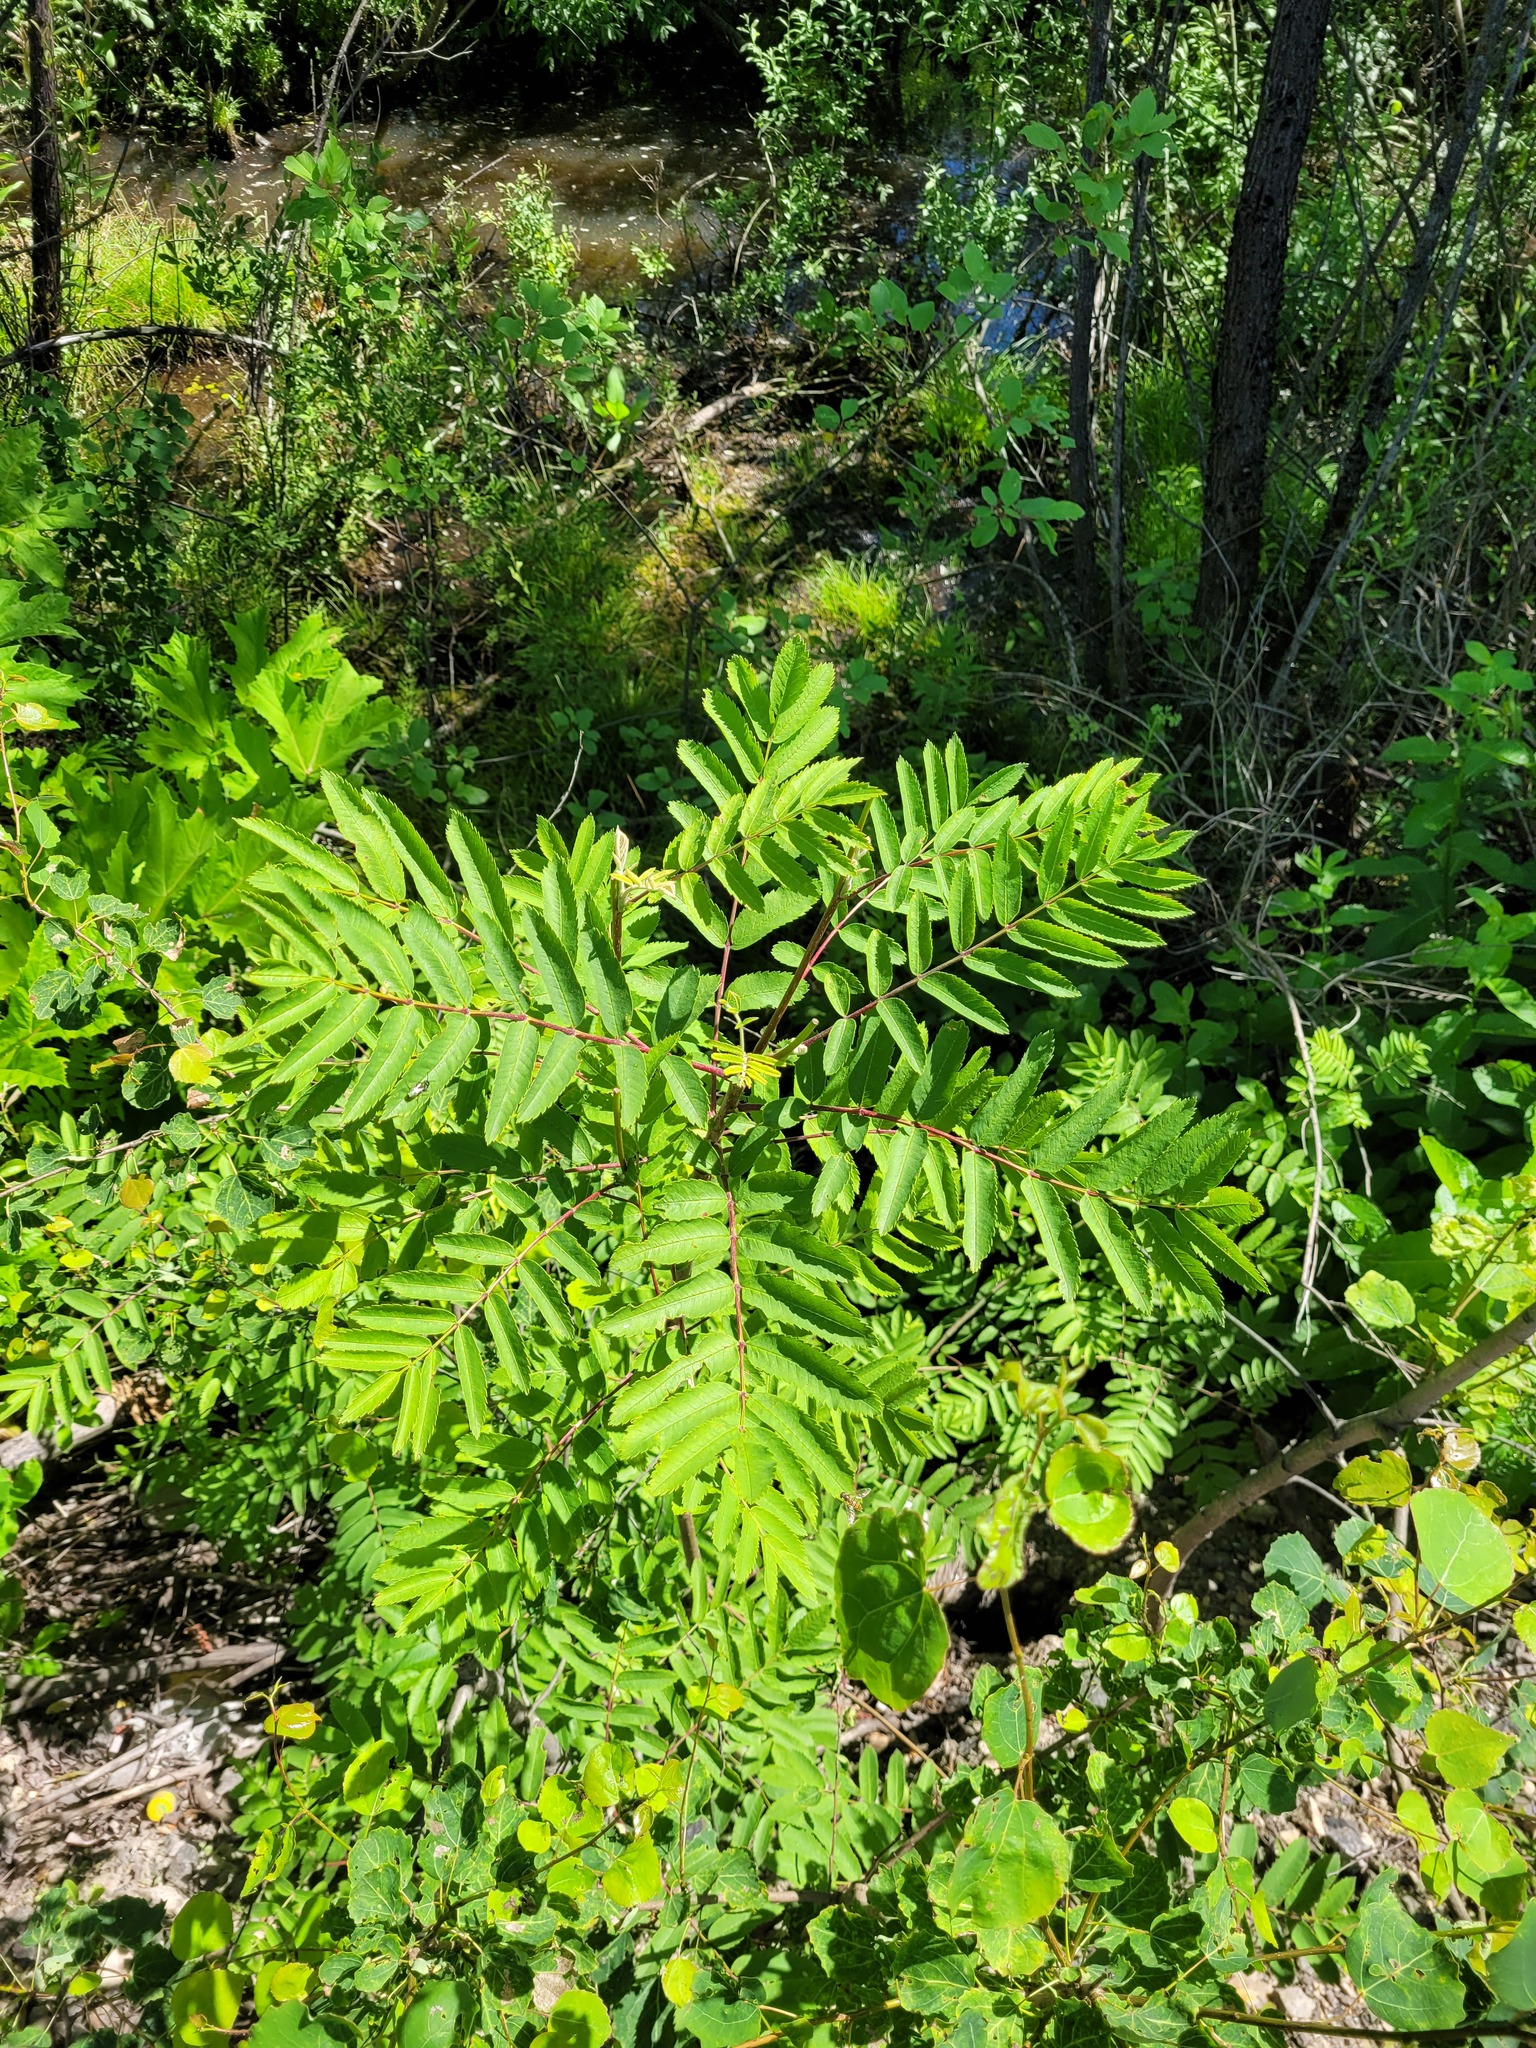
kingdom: Plantae
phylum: Tracheophyta
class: Magnoliopsida
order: Rosales
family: Rosaceae
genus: Sorbus
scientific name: Sorbus aucuparia
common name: Rowan
